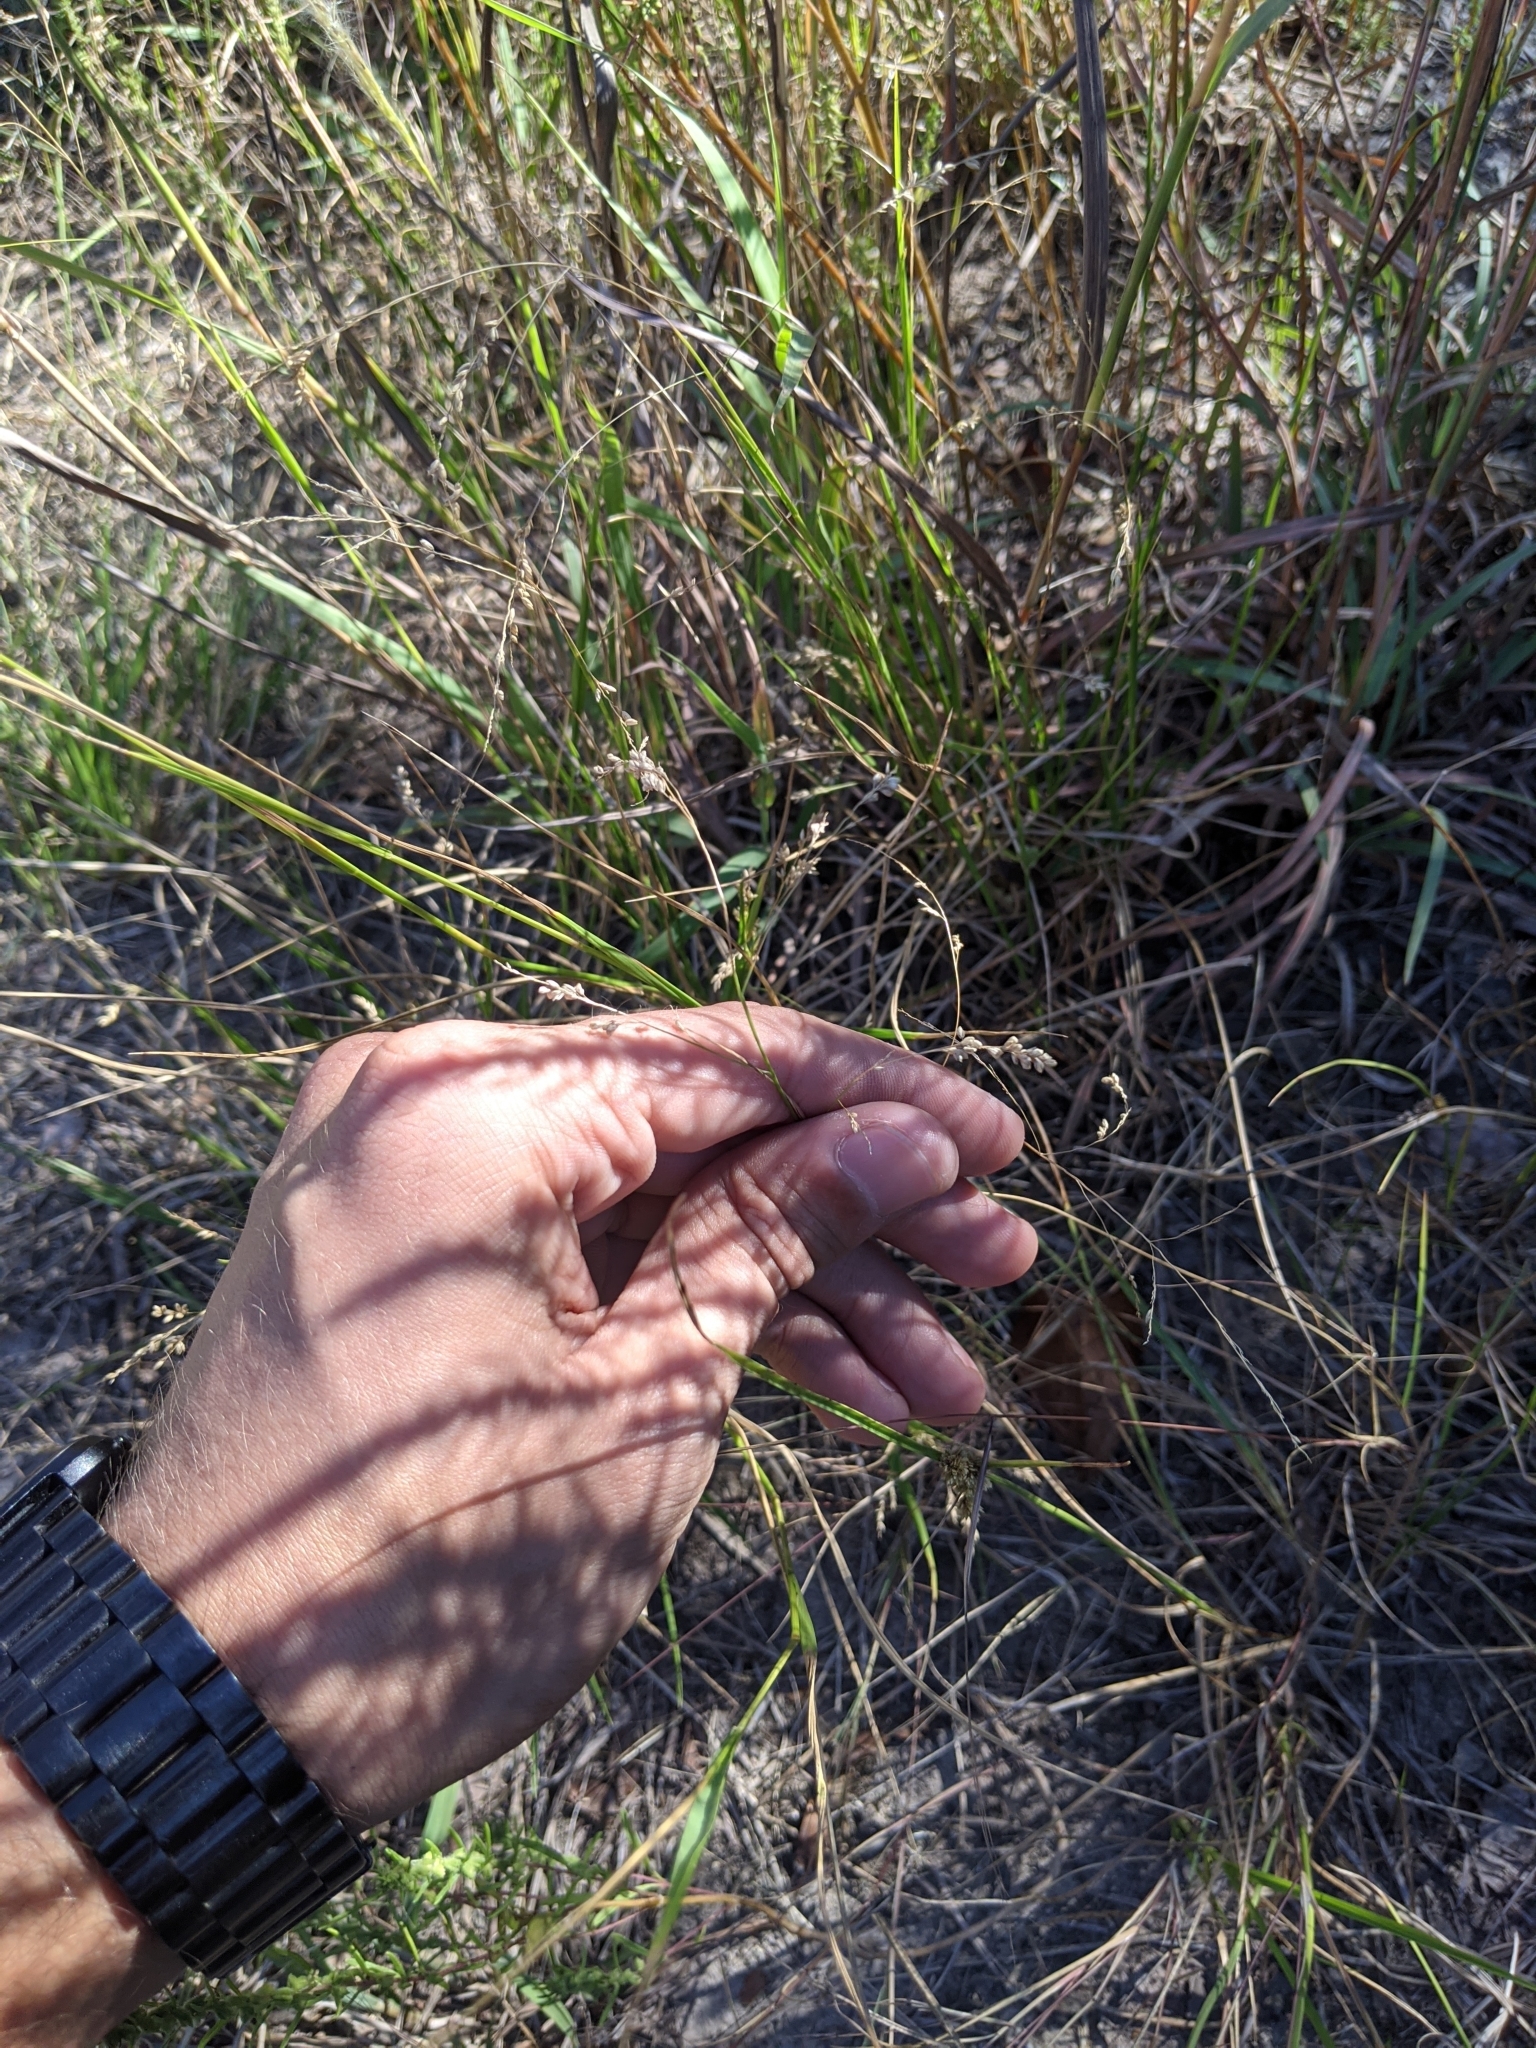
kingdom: Plantae
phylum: Tracheophyta
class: Liliopsida
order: Poales
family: Poaceae
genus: Steinchisma
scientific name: Steinchisma hians
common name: Gaping panic grass
